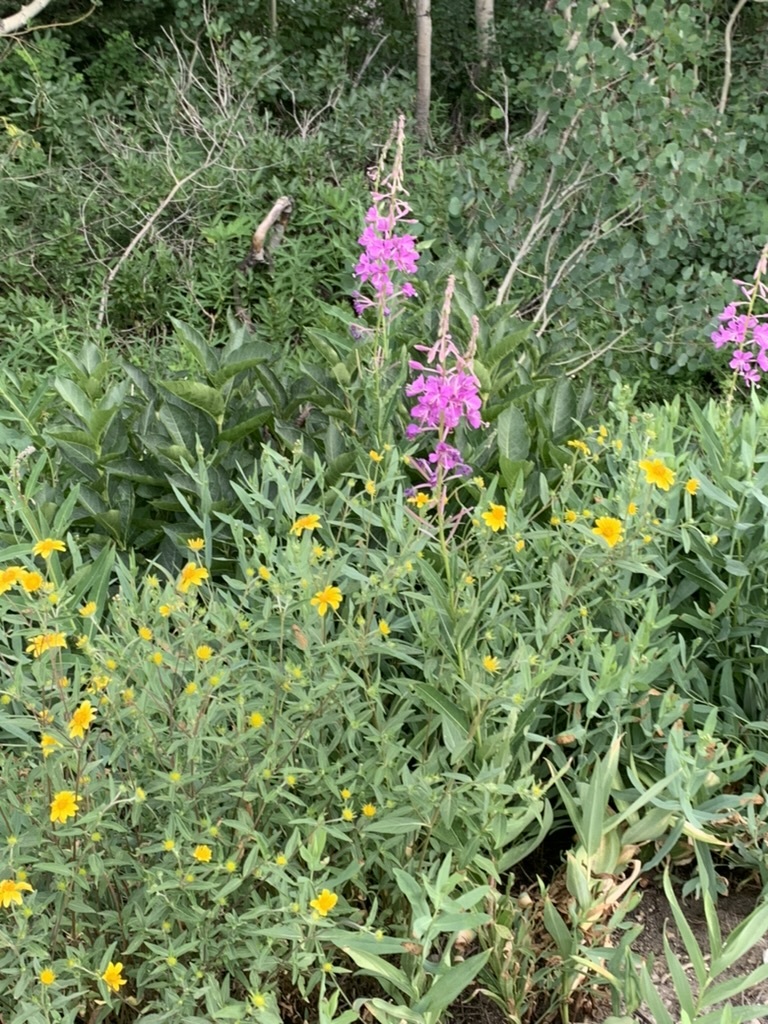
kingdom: Plantae
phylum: Tracheophyta
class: Magnoliopsida
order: Myrtales
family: Onagraceae
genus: Chamaenerion
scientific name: Chamaenerion angustifolium
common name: Fireweed
